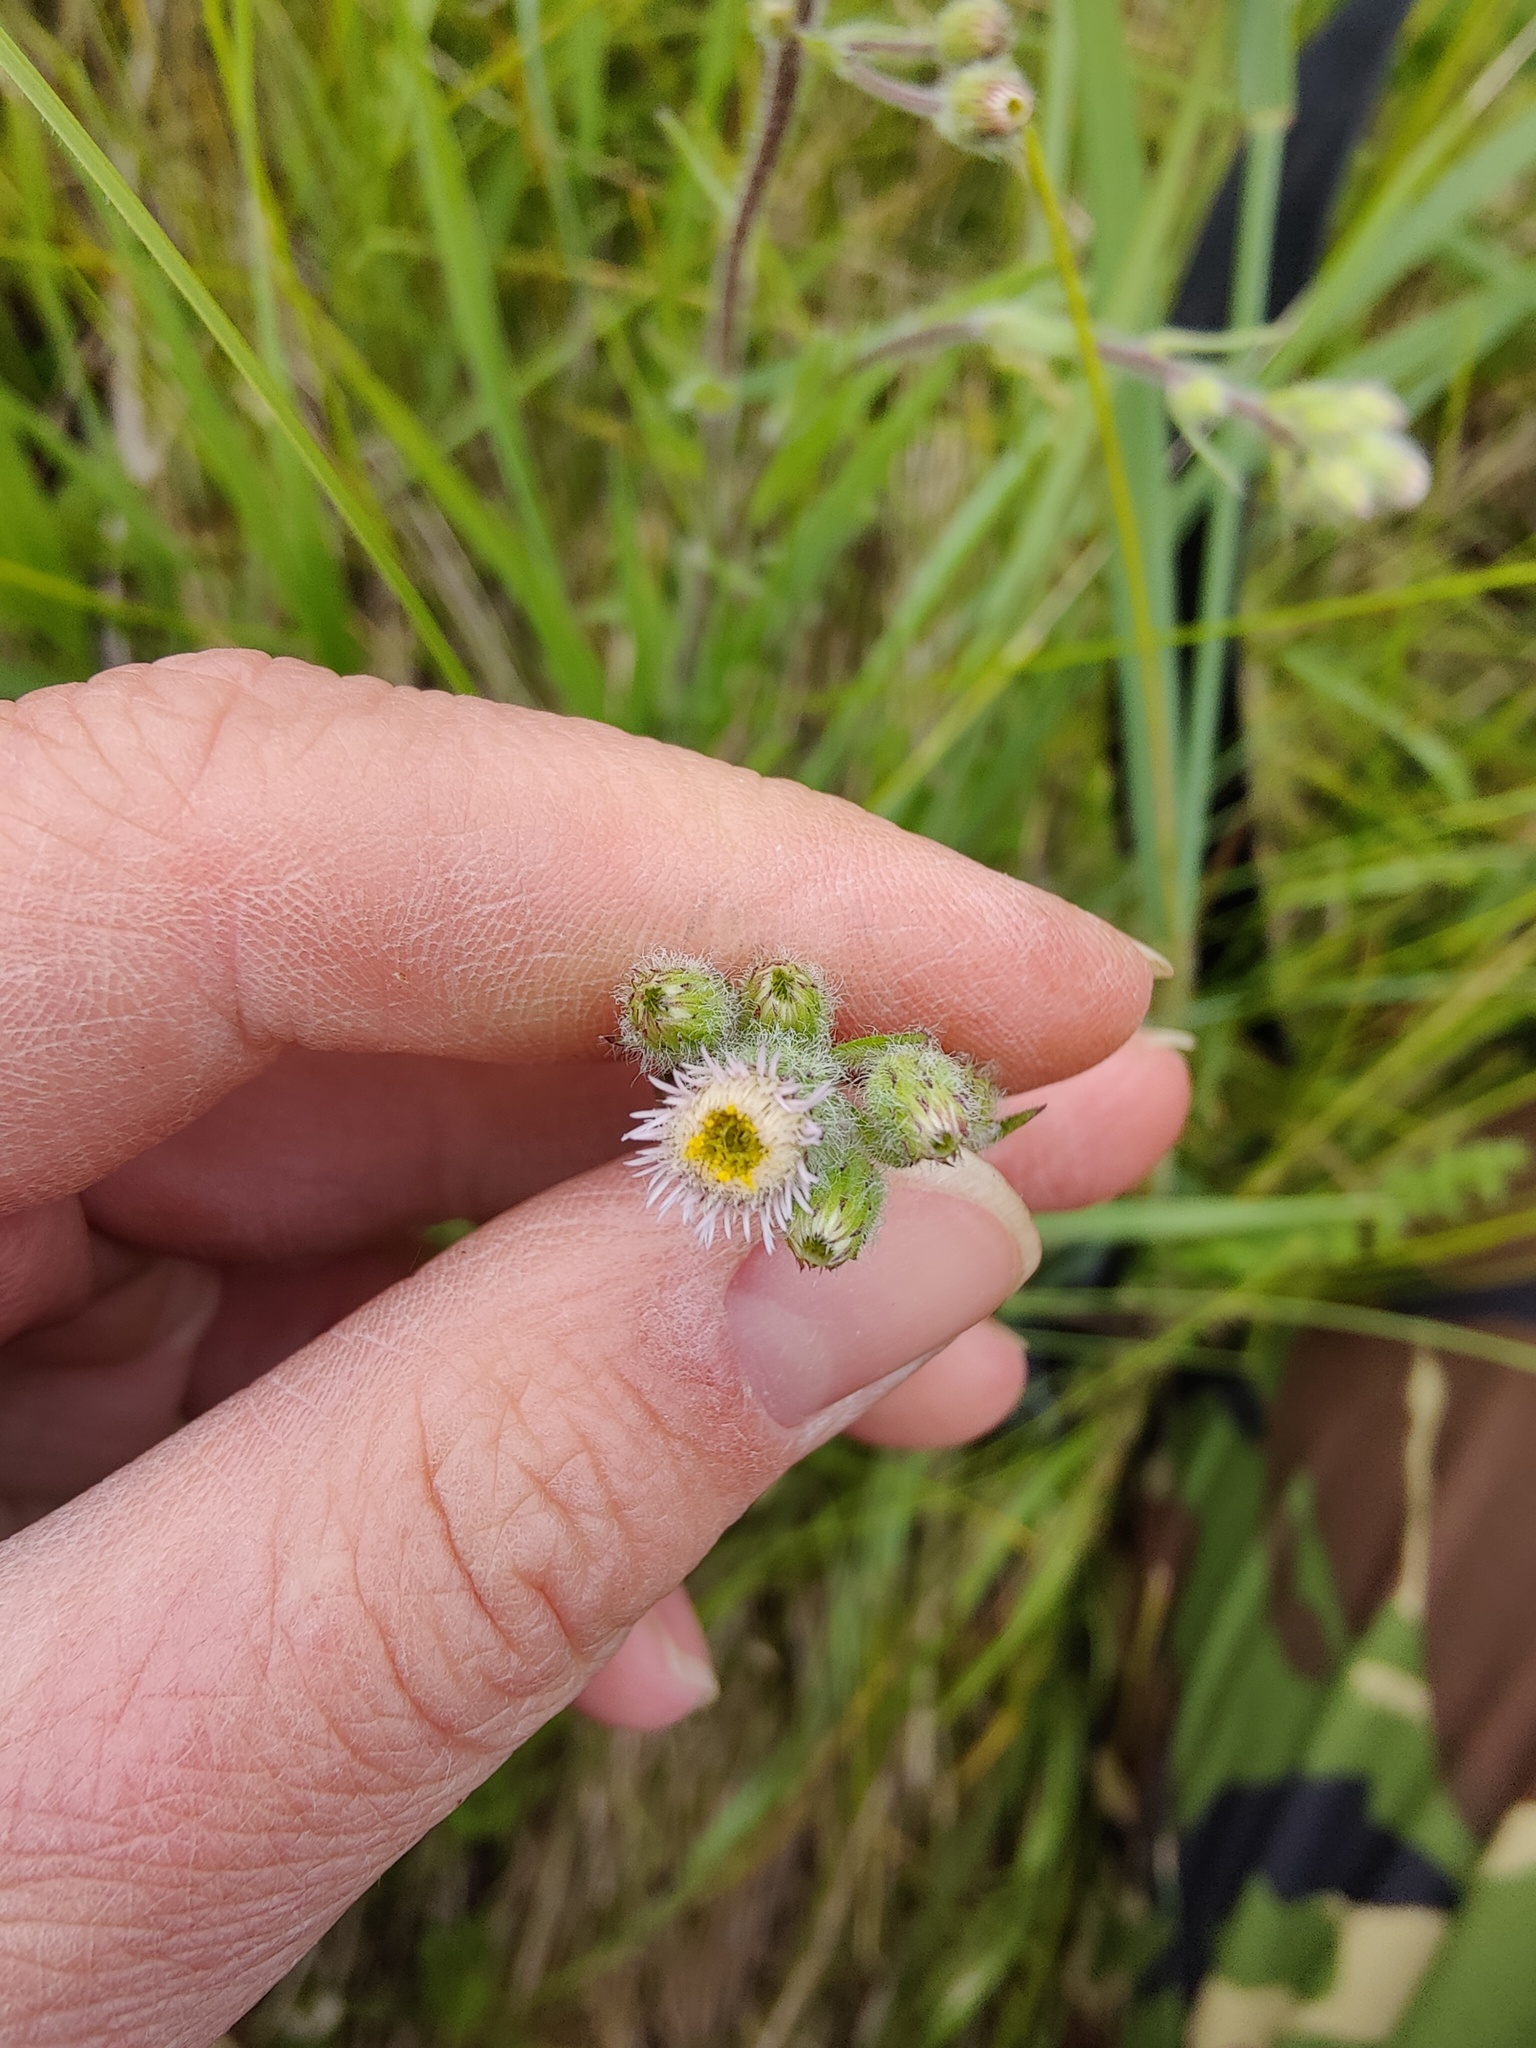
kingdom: Plantae
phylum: Tracheophyta
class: Magnoliopsida
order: Asterales
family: Asteraceae
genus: Erigeron
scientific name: Erigeron acris
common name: Blue fleabane
